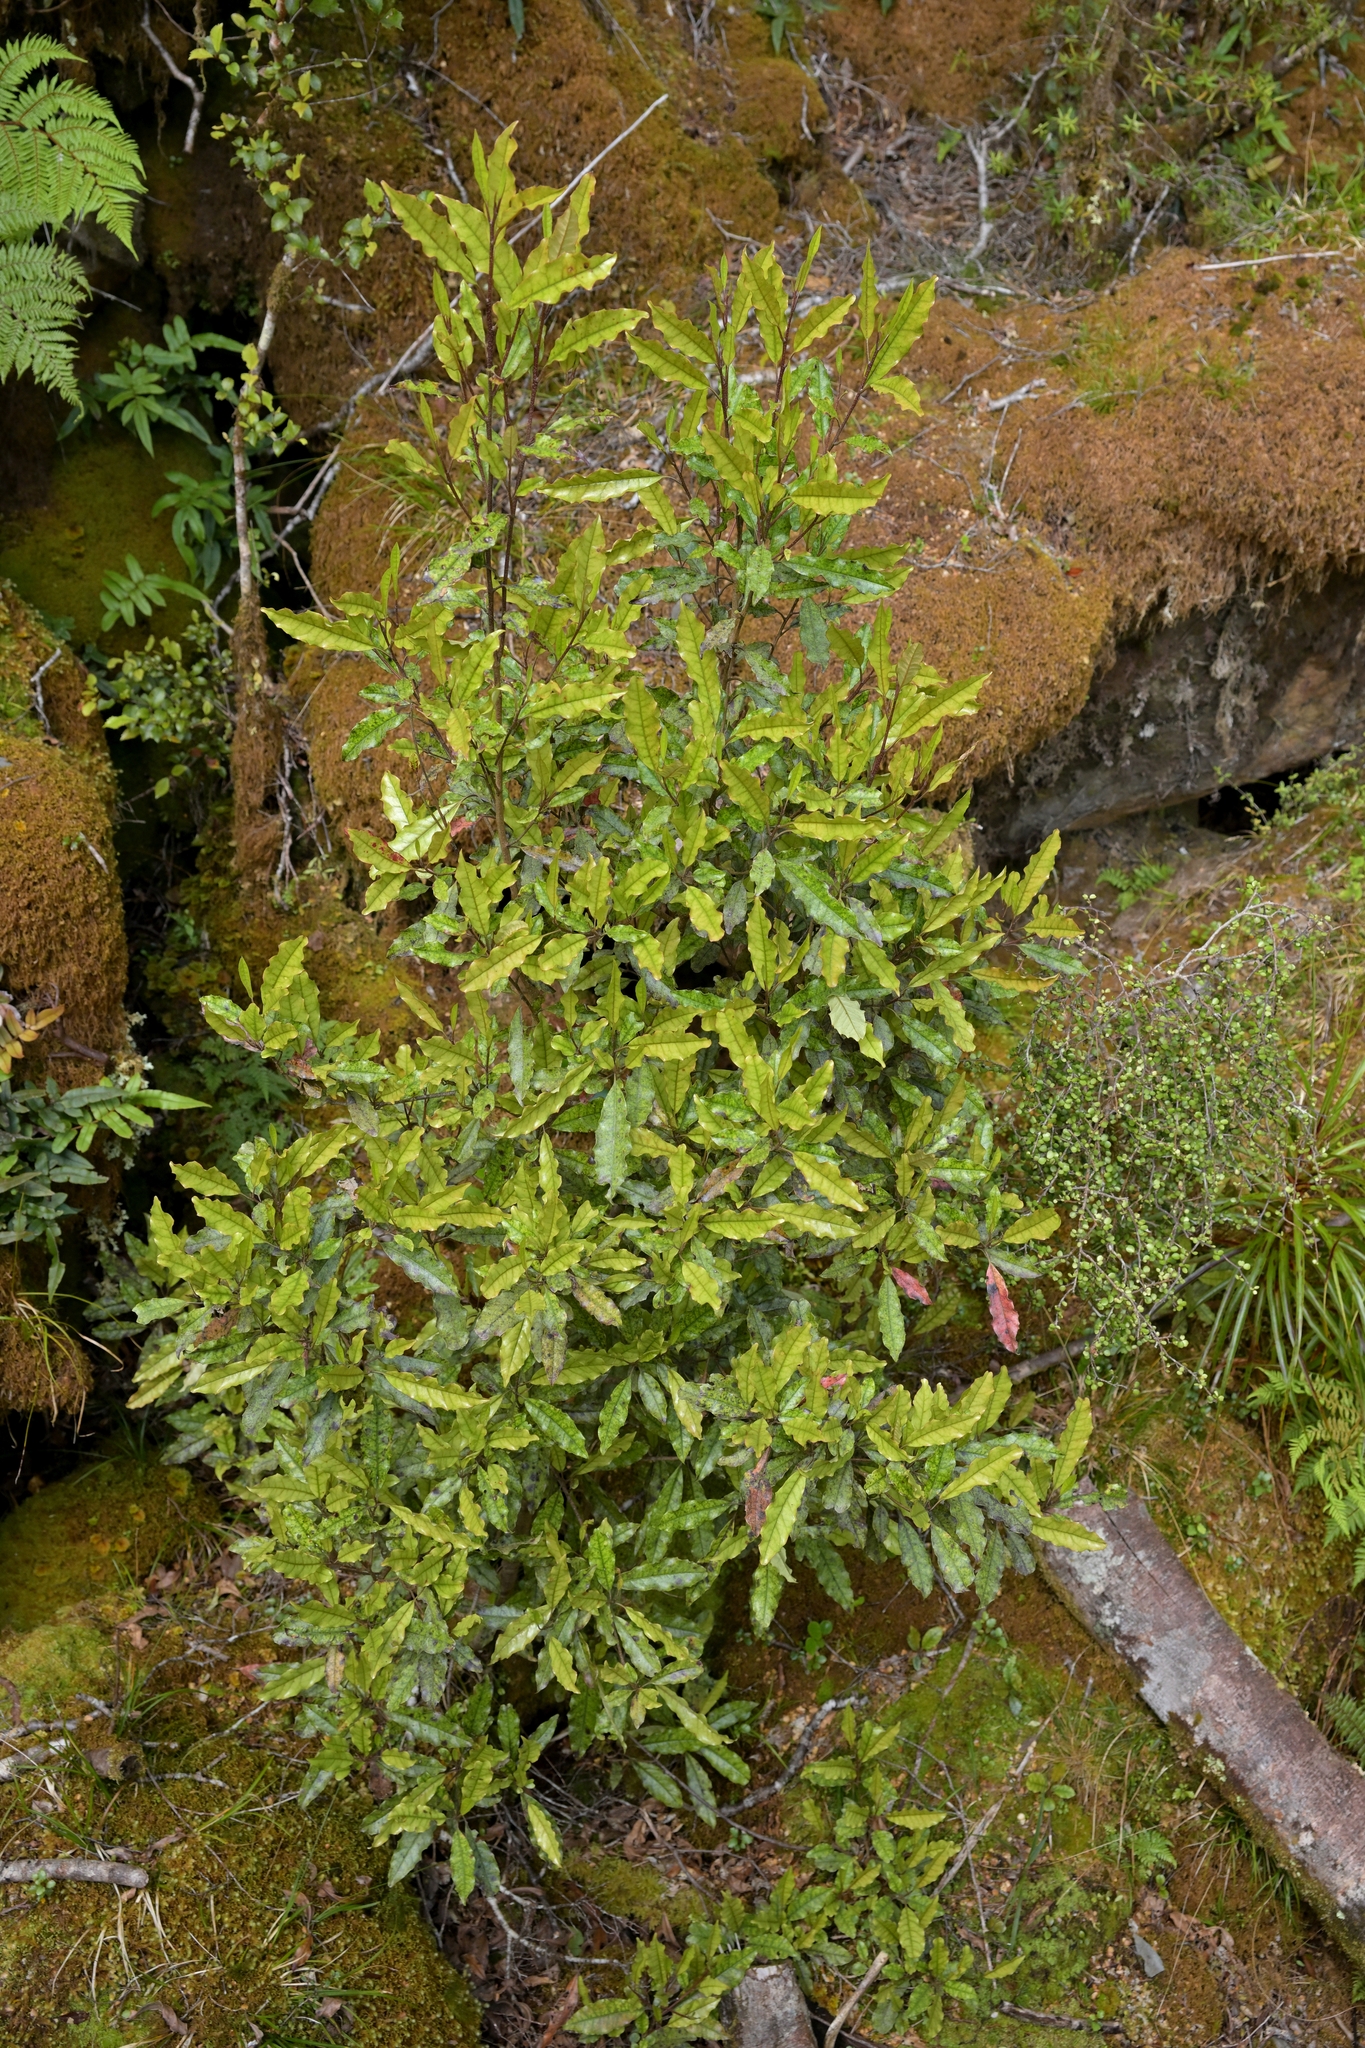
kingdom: Plantae
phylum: Tracheophyta
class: Magnoliopsida
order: Paracryphiales
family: Paracryphiaceae
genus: Quintinia
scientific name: Quintinia serrata
